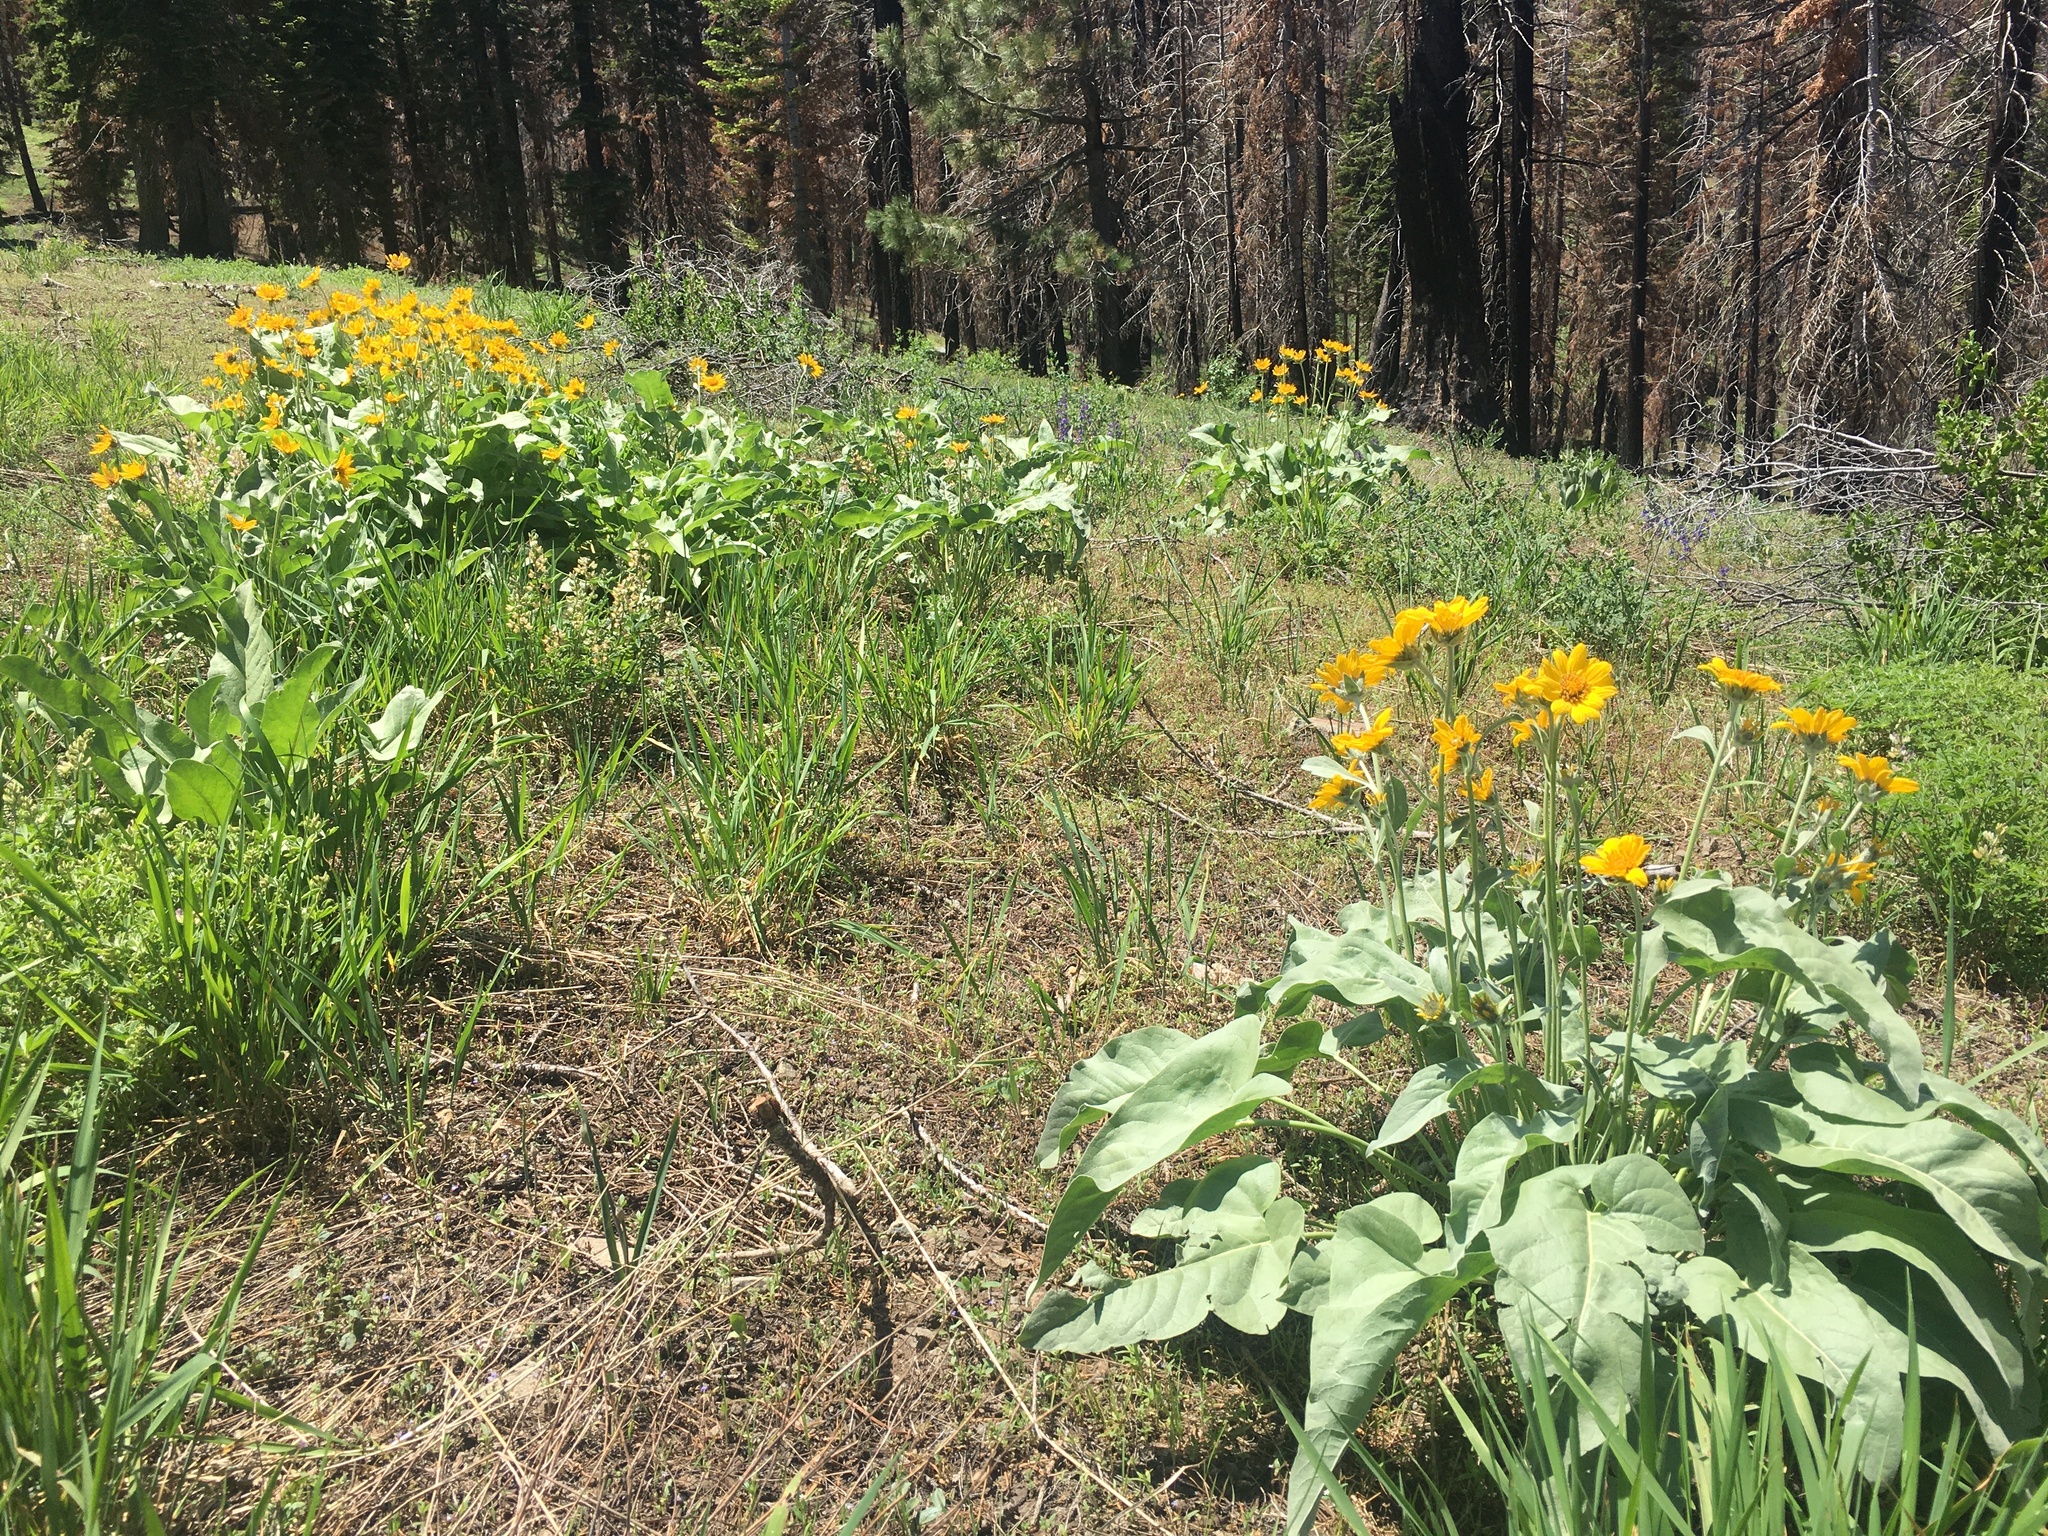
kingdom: Plantae
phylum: Tracheophyta
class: Magnoliopsida
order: Asterales
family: Asteraceae
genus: Wyethia
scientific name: Wyethia sagittata
